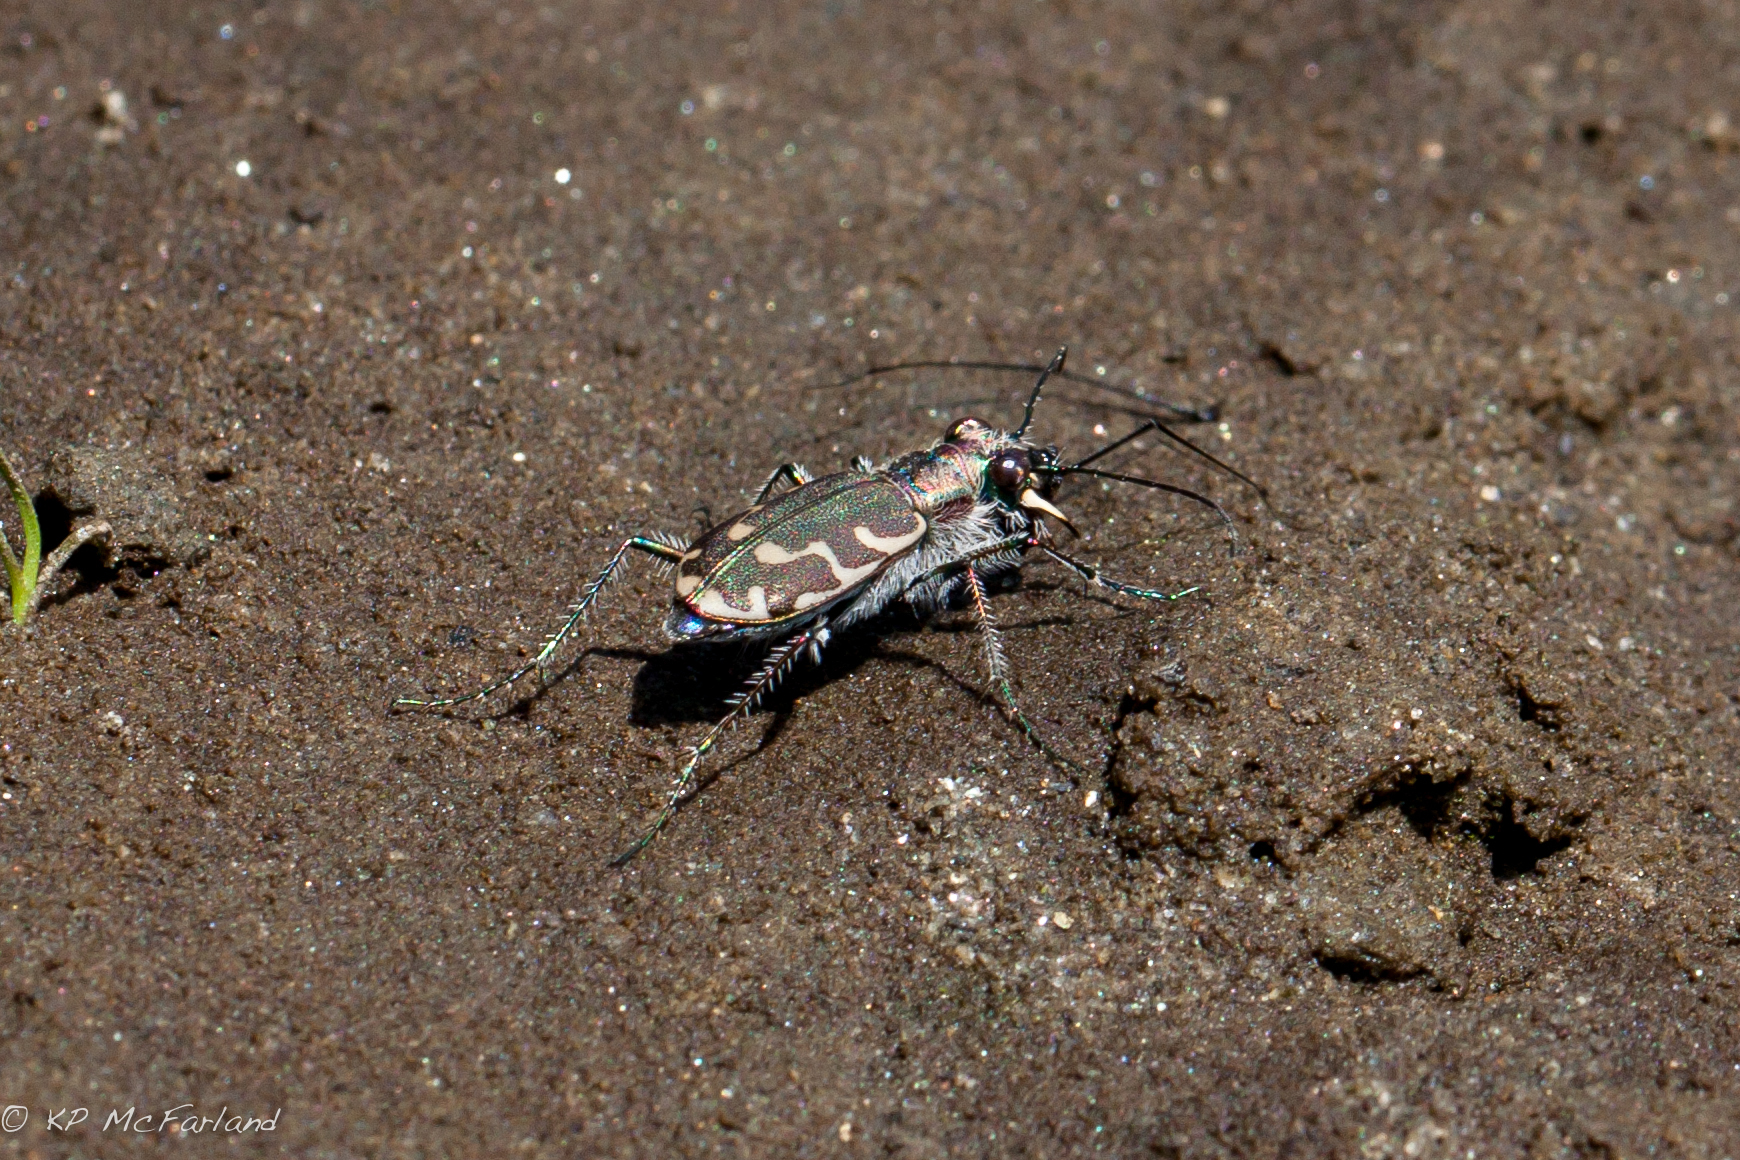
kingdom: Animalia
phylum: Arthropoda
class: Insecta
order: Coleoptera
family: Carabidae
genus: Cicindela
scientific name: Cicindela repanda
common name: Bronzed tiger beetle
